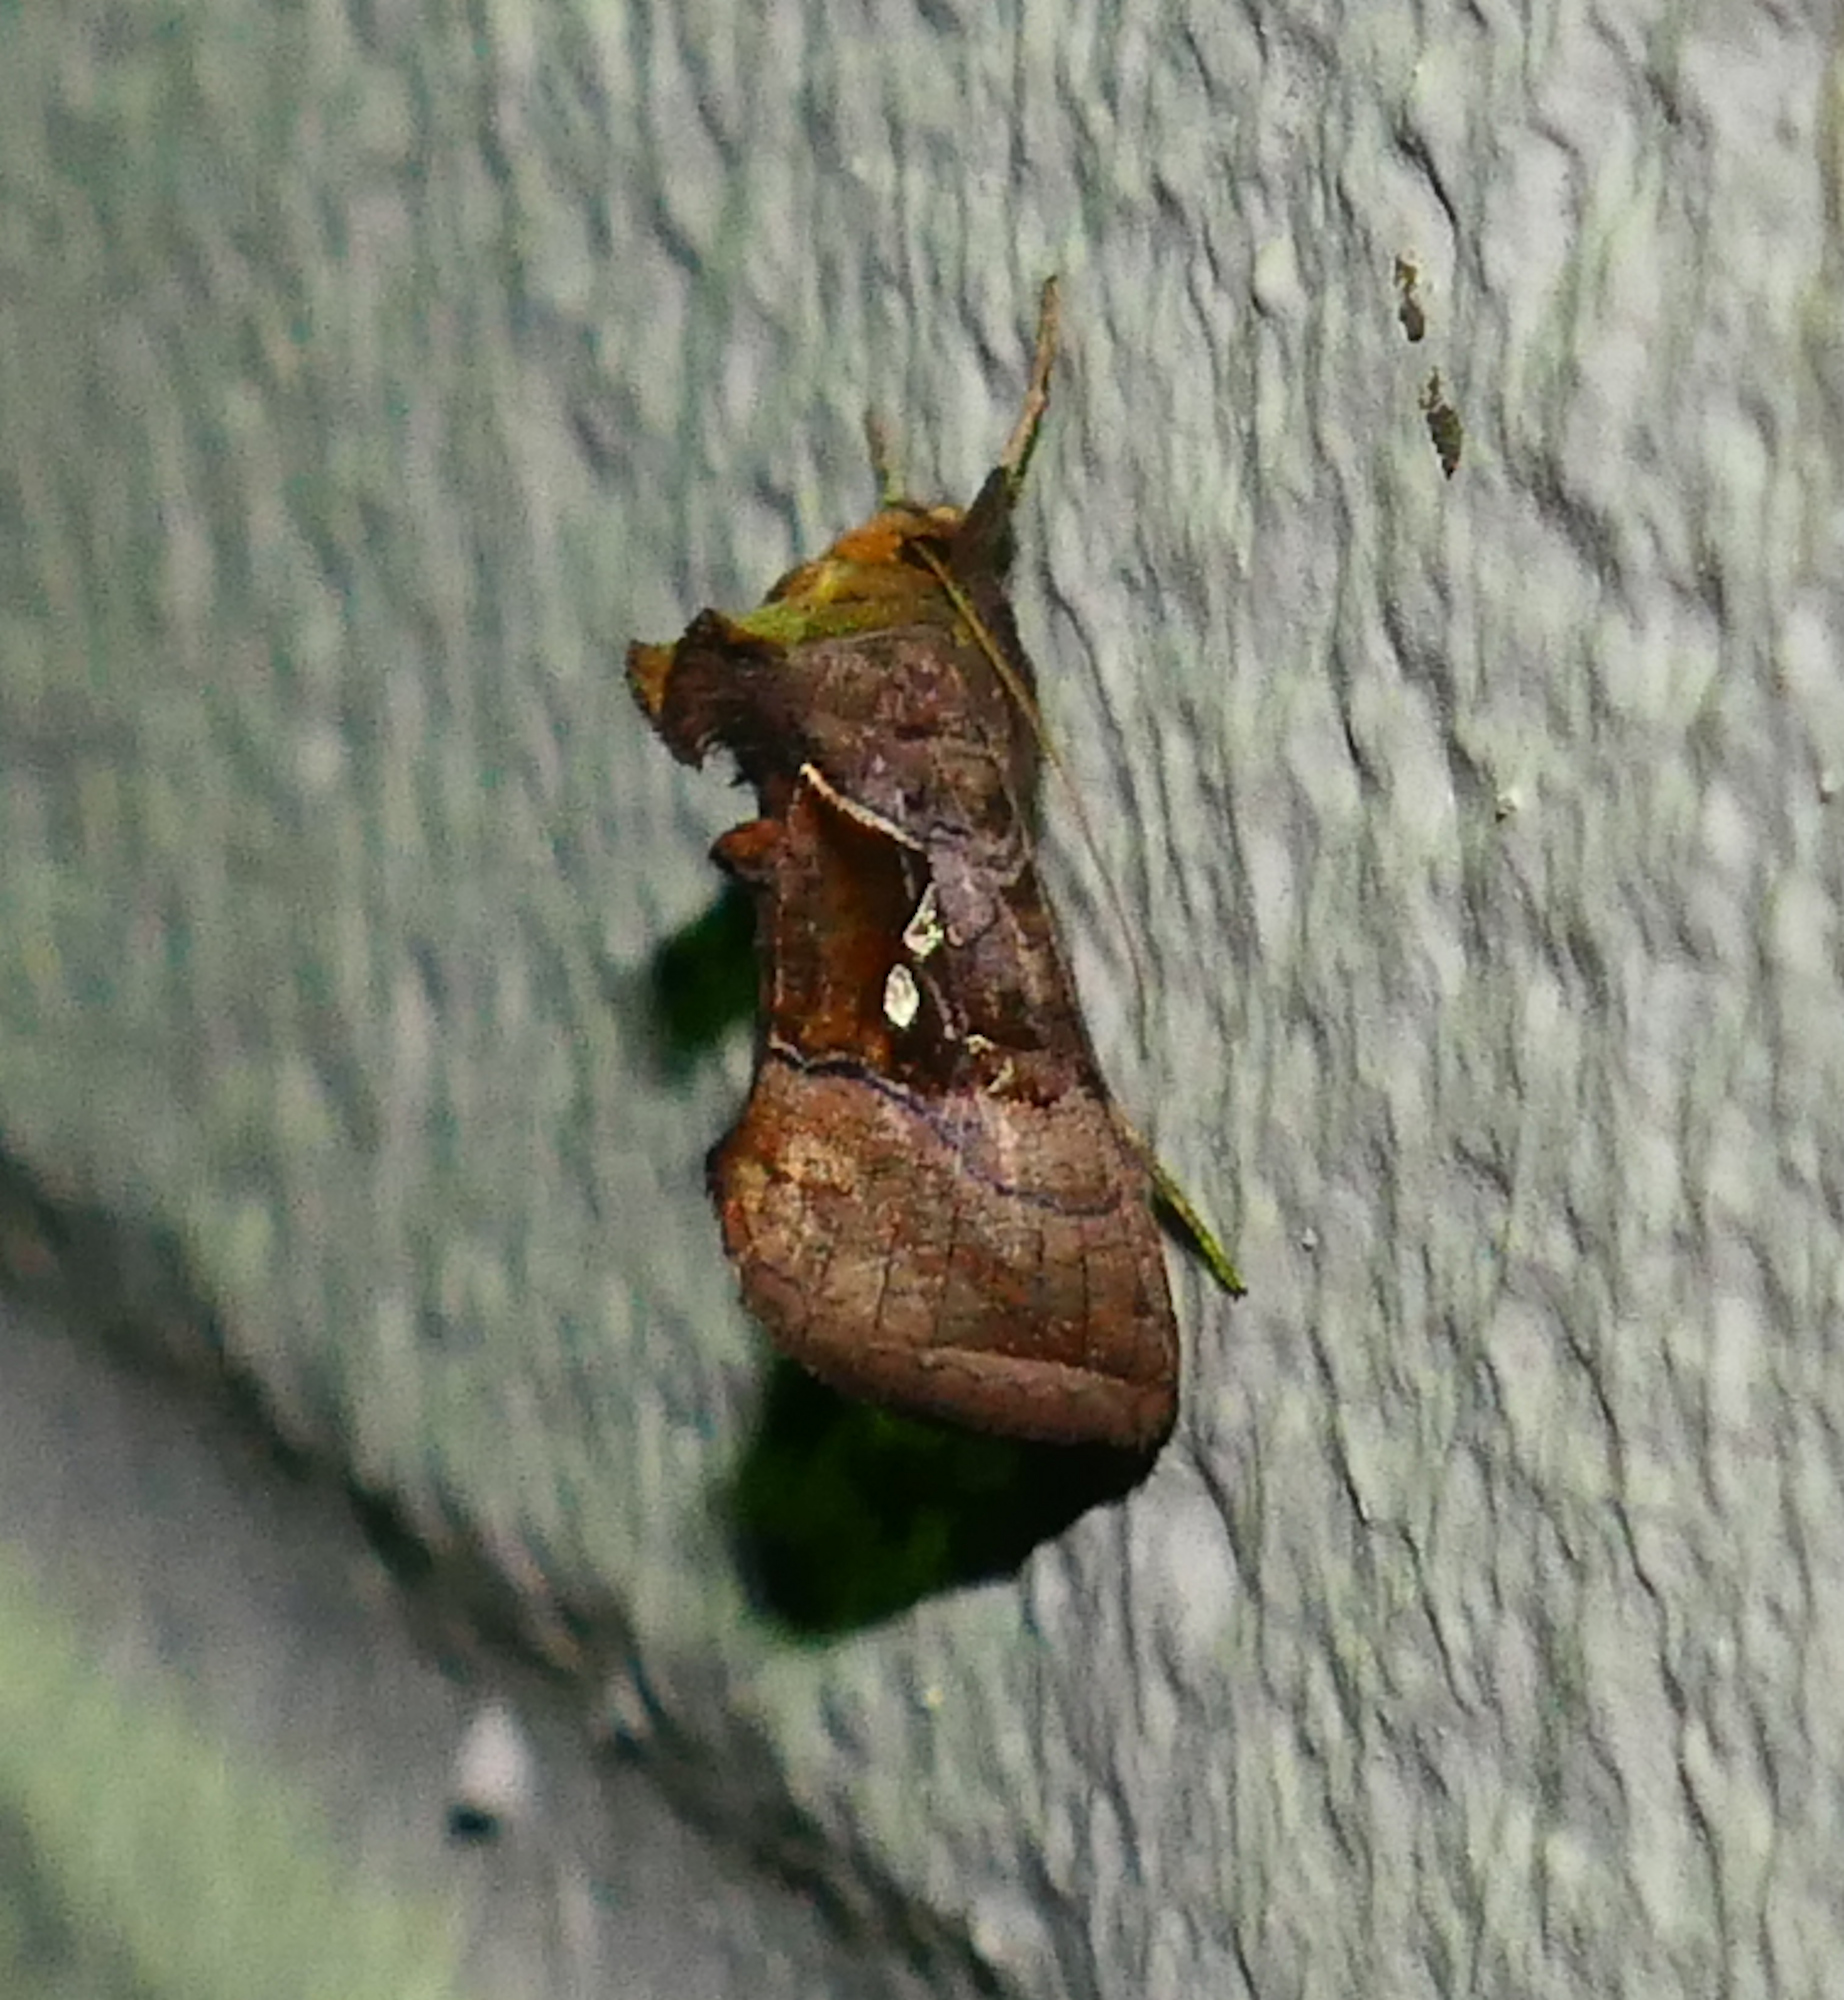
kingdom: Animalia
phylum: Arthropoda
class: Insecta
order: Lepidoptera
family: Noctuidae
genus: Enigmogramma
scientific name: Enigmogramma basigera
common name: Pink-washed looper moth
